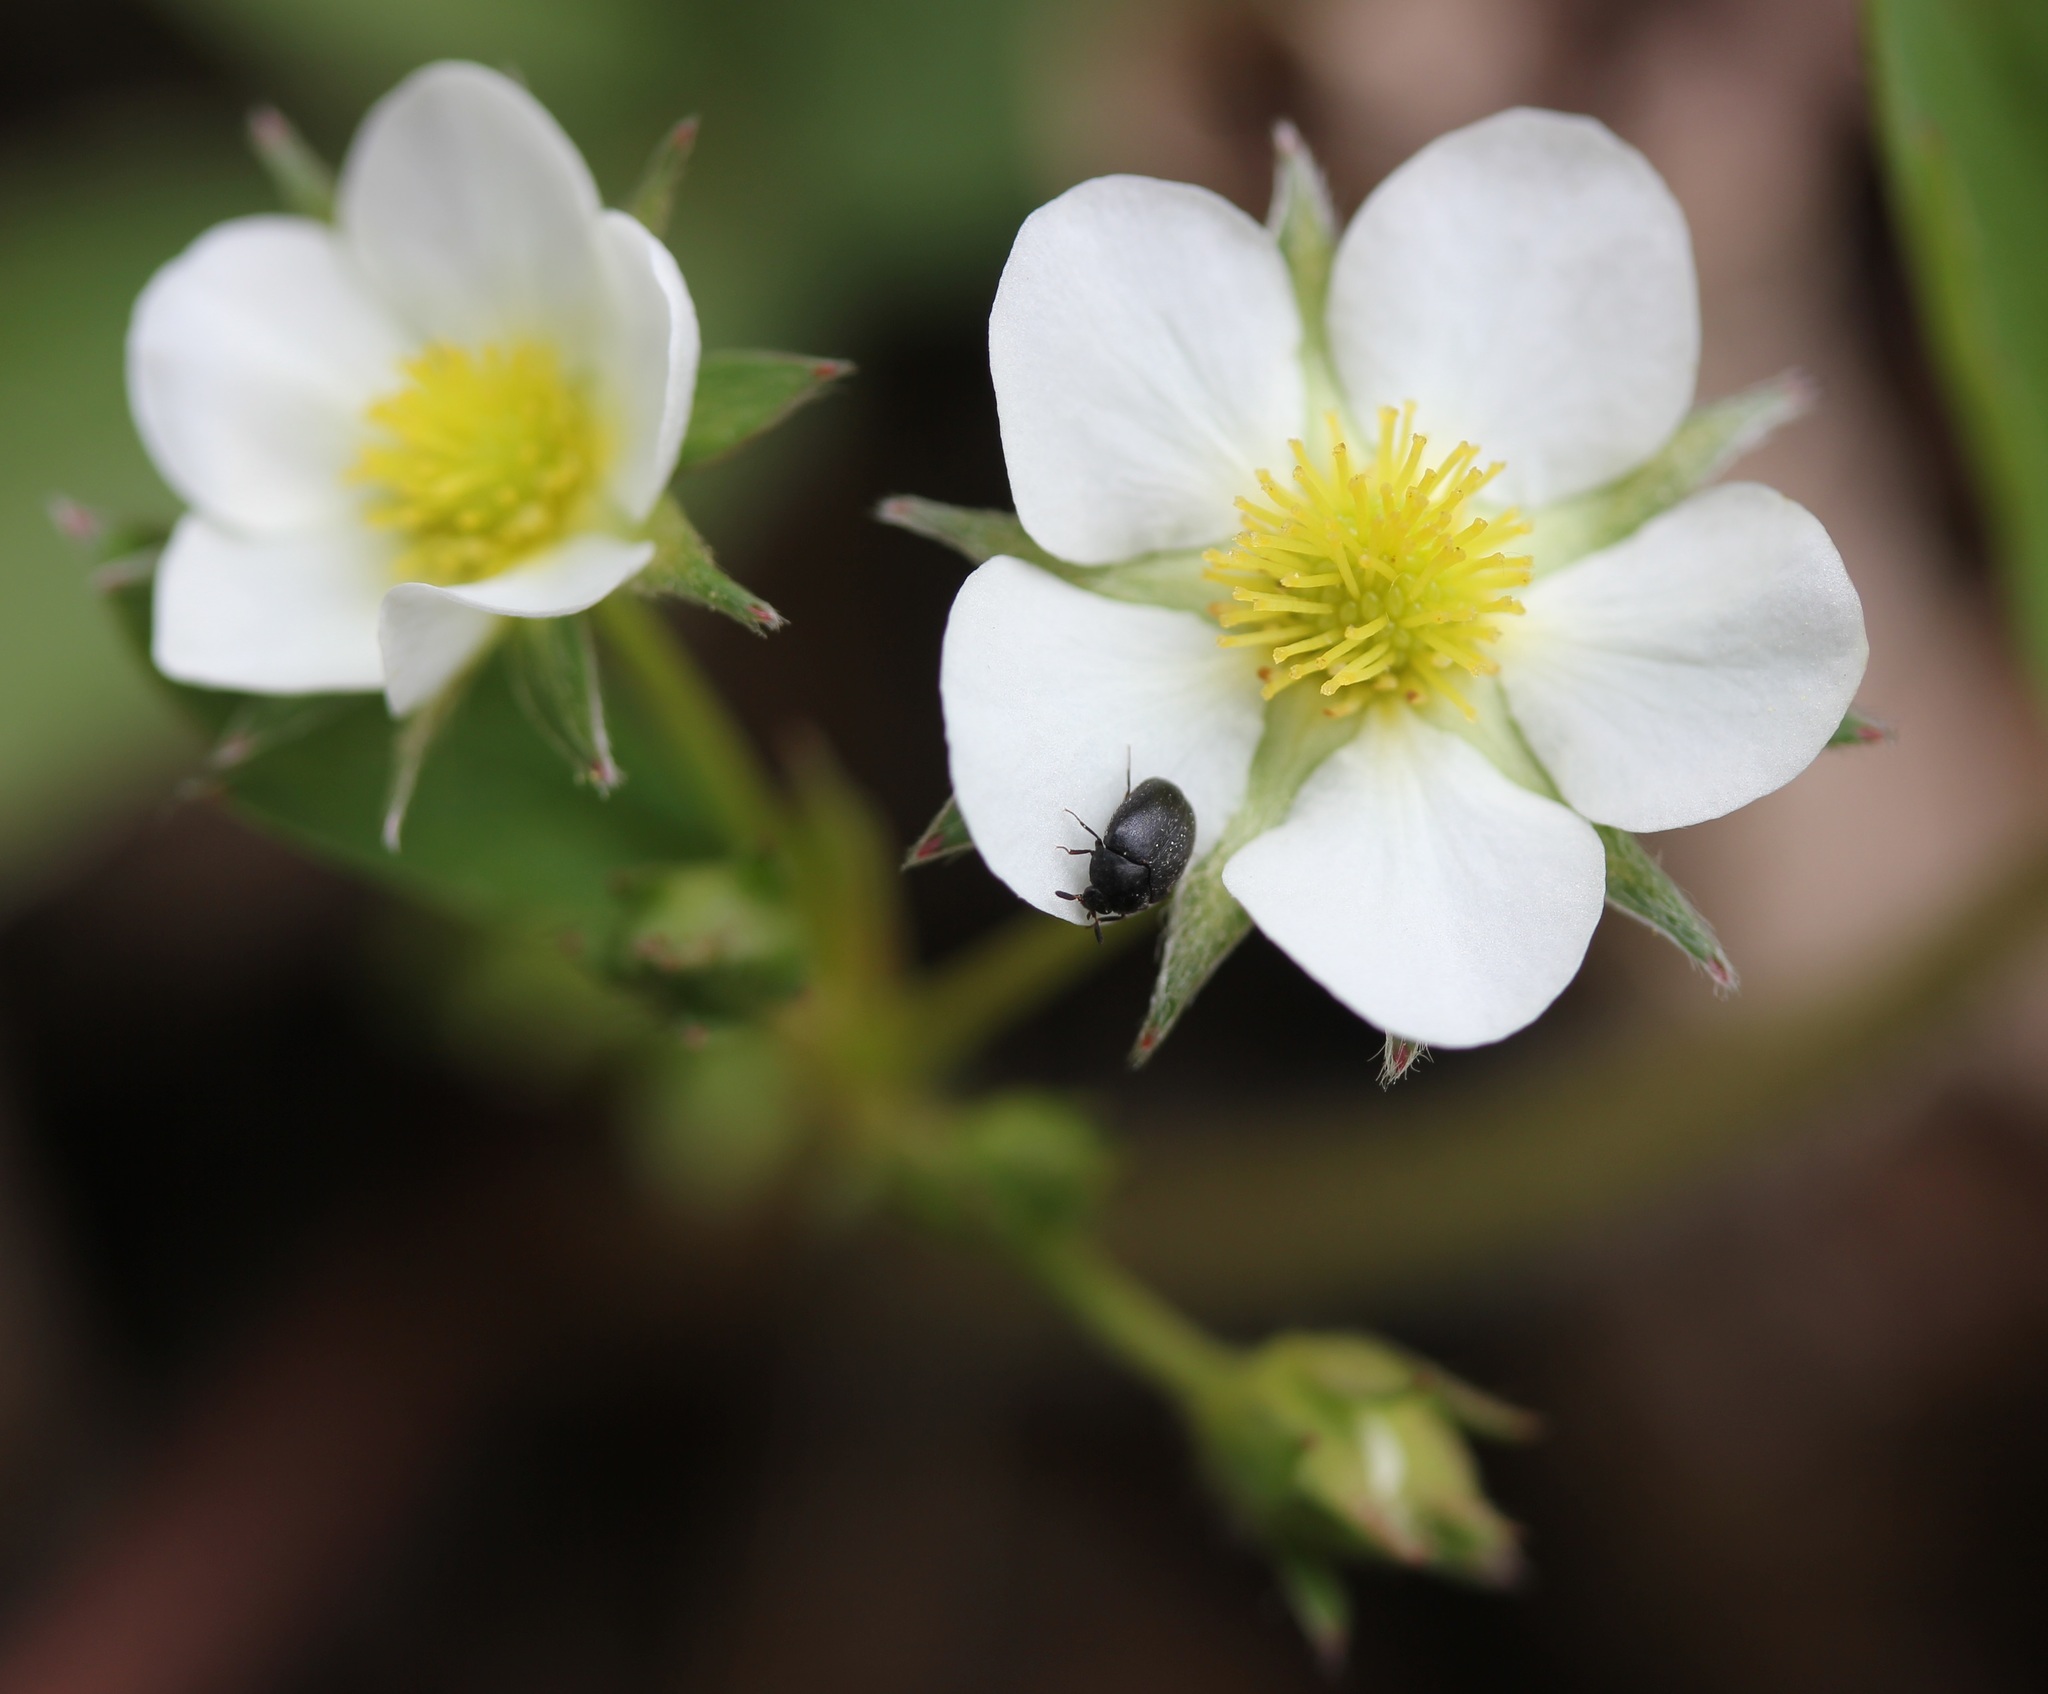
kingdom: Plantae
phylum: Tracheophyta
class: Magnoliopsida
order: Rosales
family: Rosaceae
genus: Fragaria
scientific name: Fragaria virginiana
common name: Thickleaved wild strawberry
